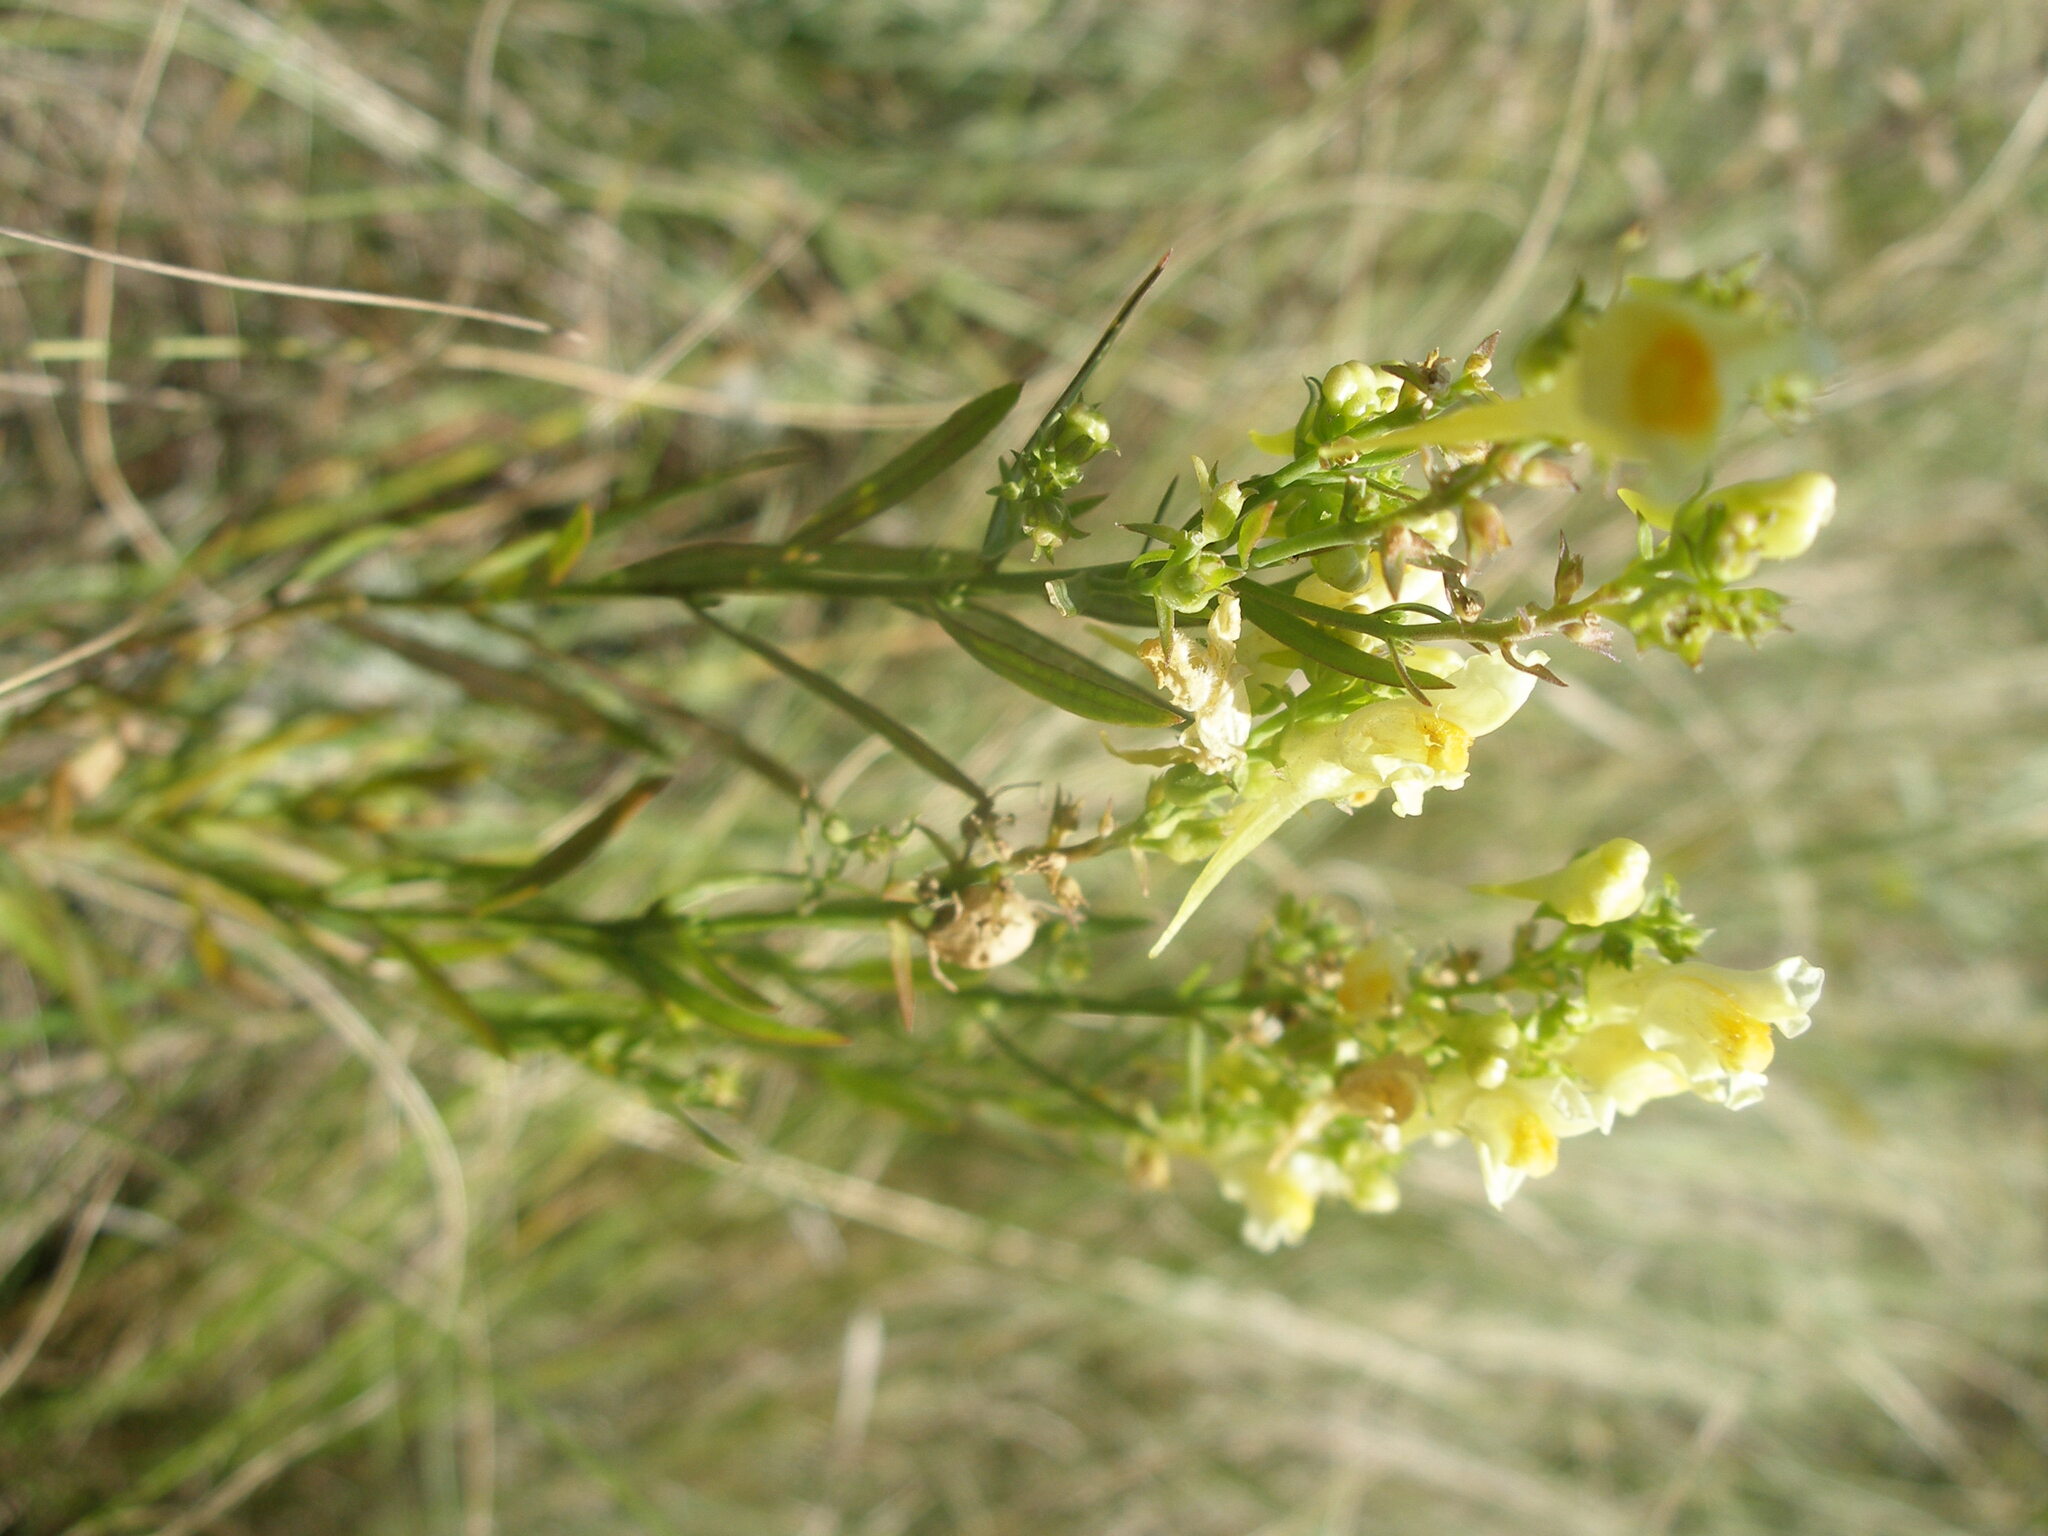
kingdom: Plantae
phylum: Tracheophyta
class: Magnoliopsida
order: Lamiales
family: Plantaginaceae
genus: Linaria
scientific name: Linaria vulgaris
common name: Butter and eggs
